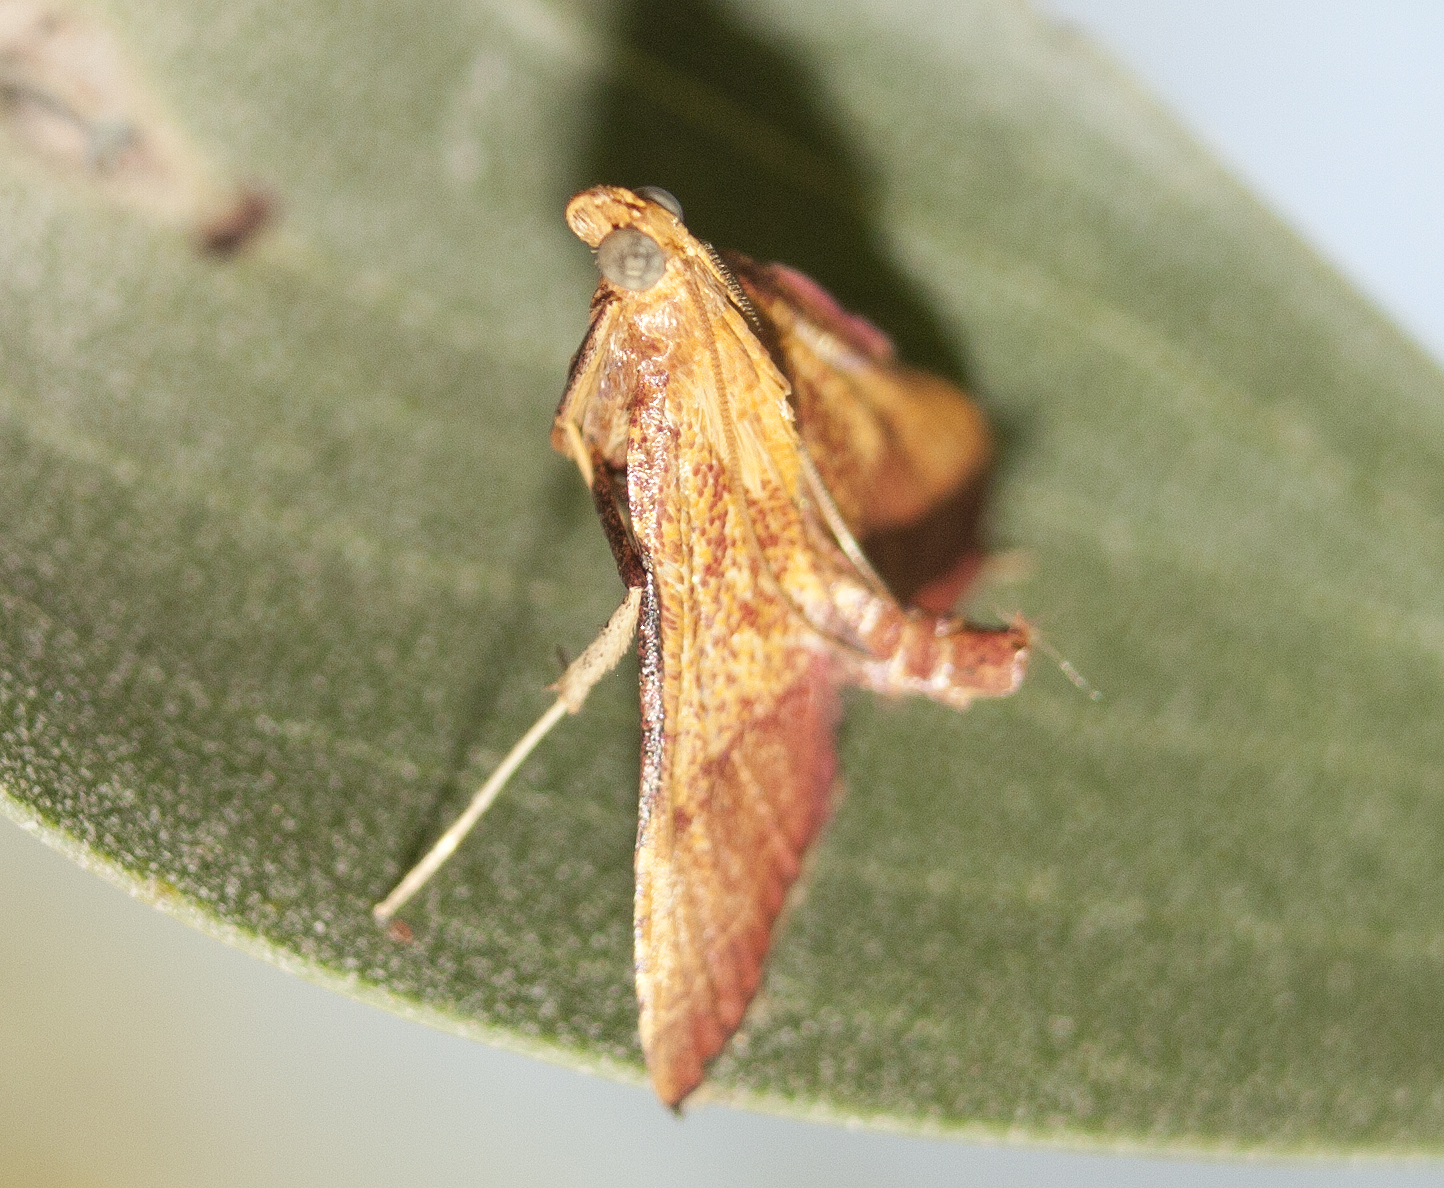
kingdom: Animalia
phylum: Arthropoda
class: Insecta
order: Lepidoptera
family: Pyralidae
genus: Endotricha
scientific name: Endotricha pyrosalis
